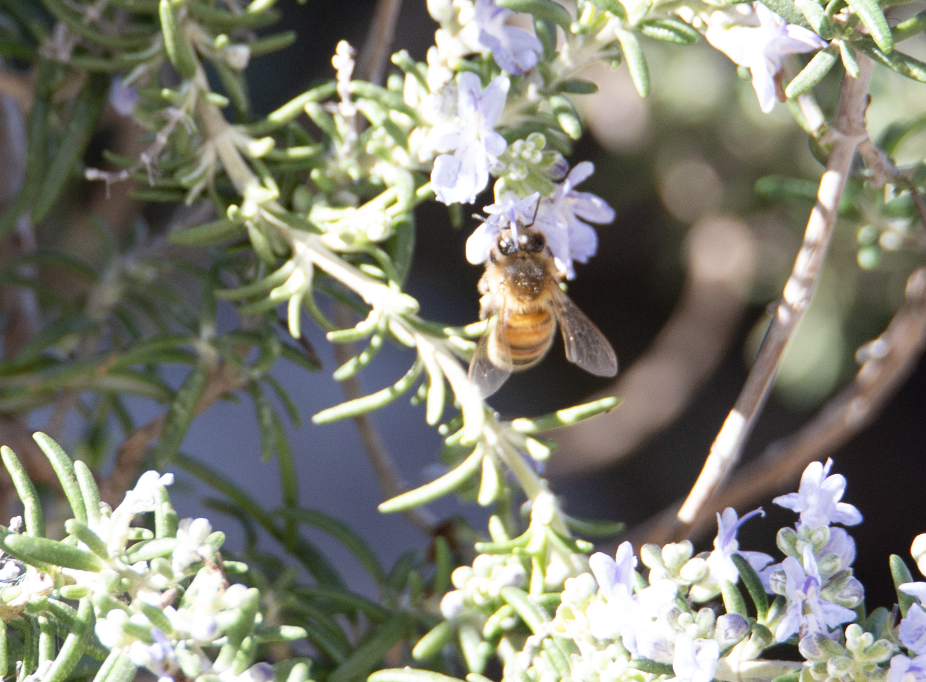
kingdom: Animalia
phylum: Arthropoda
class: Insecta
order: Hymenoptera
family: Apidae
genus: Apis
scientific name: Apis mellifera
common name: Honey bee
